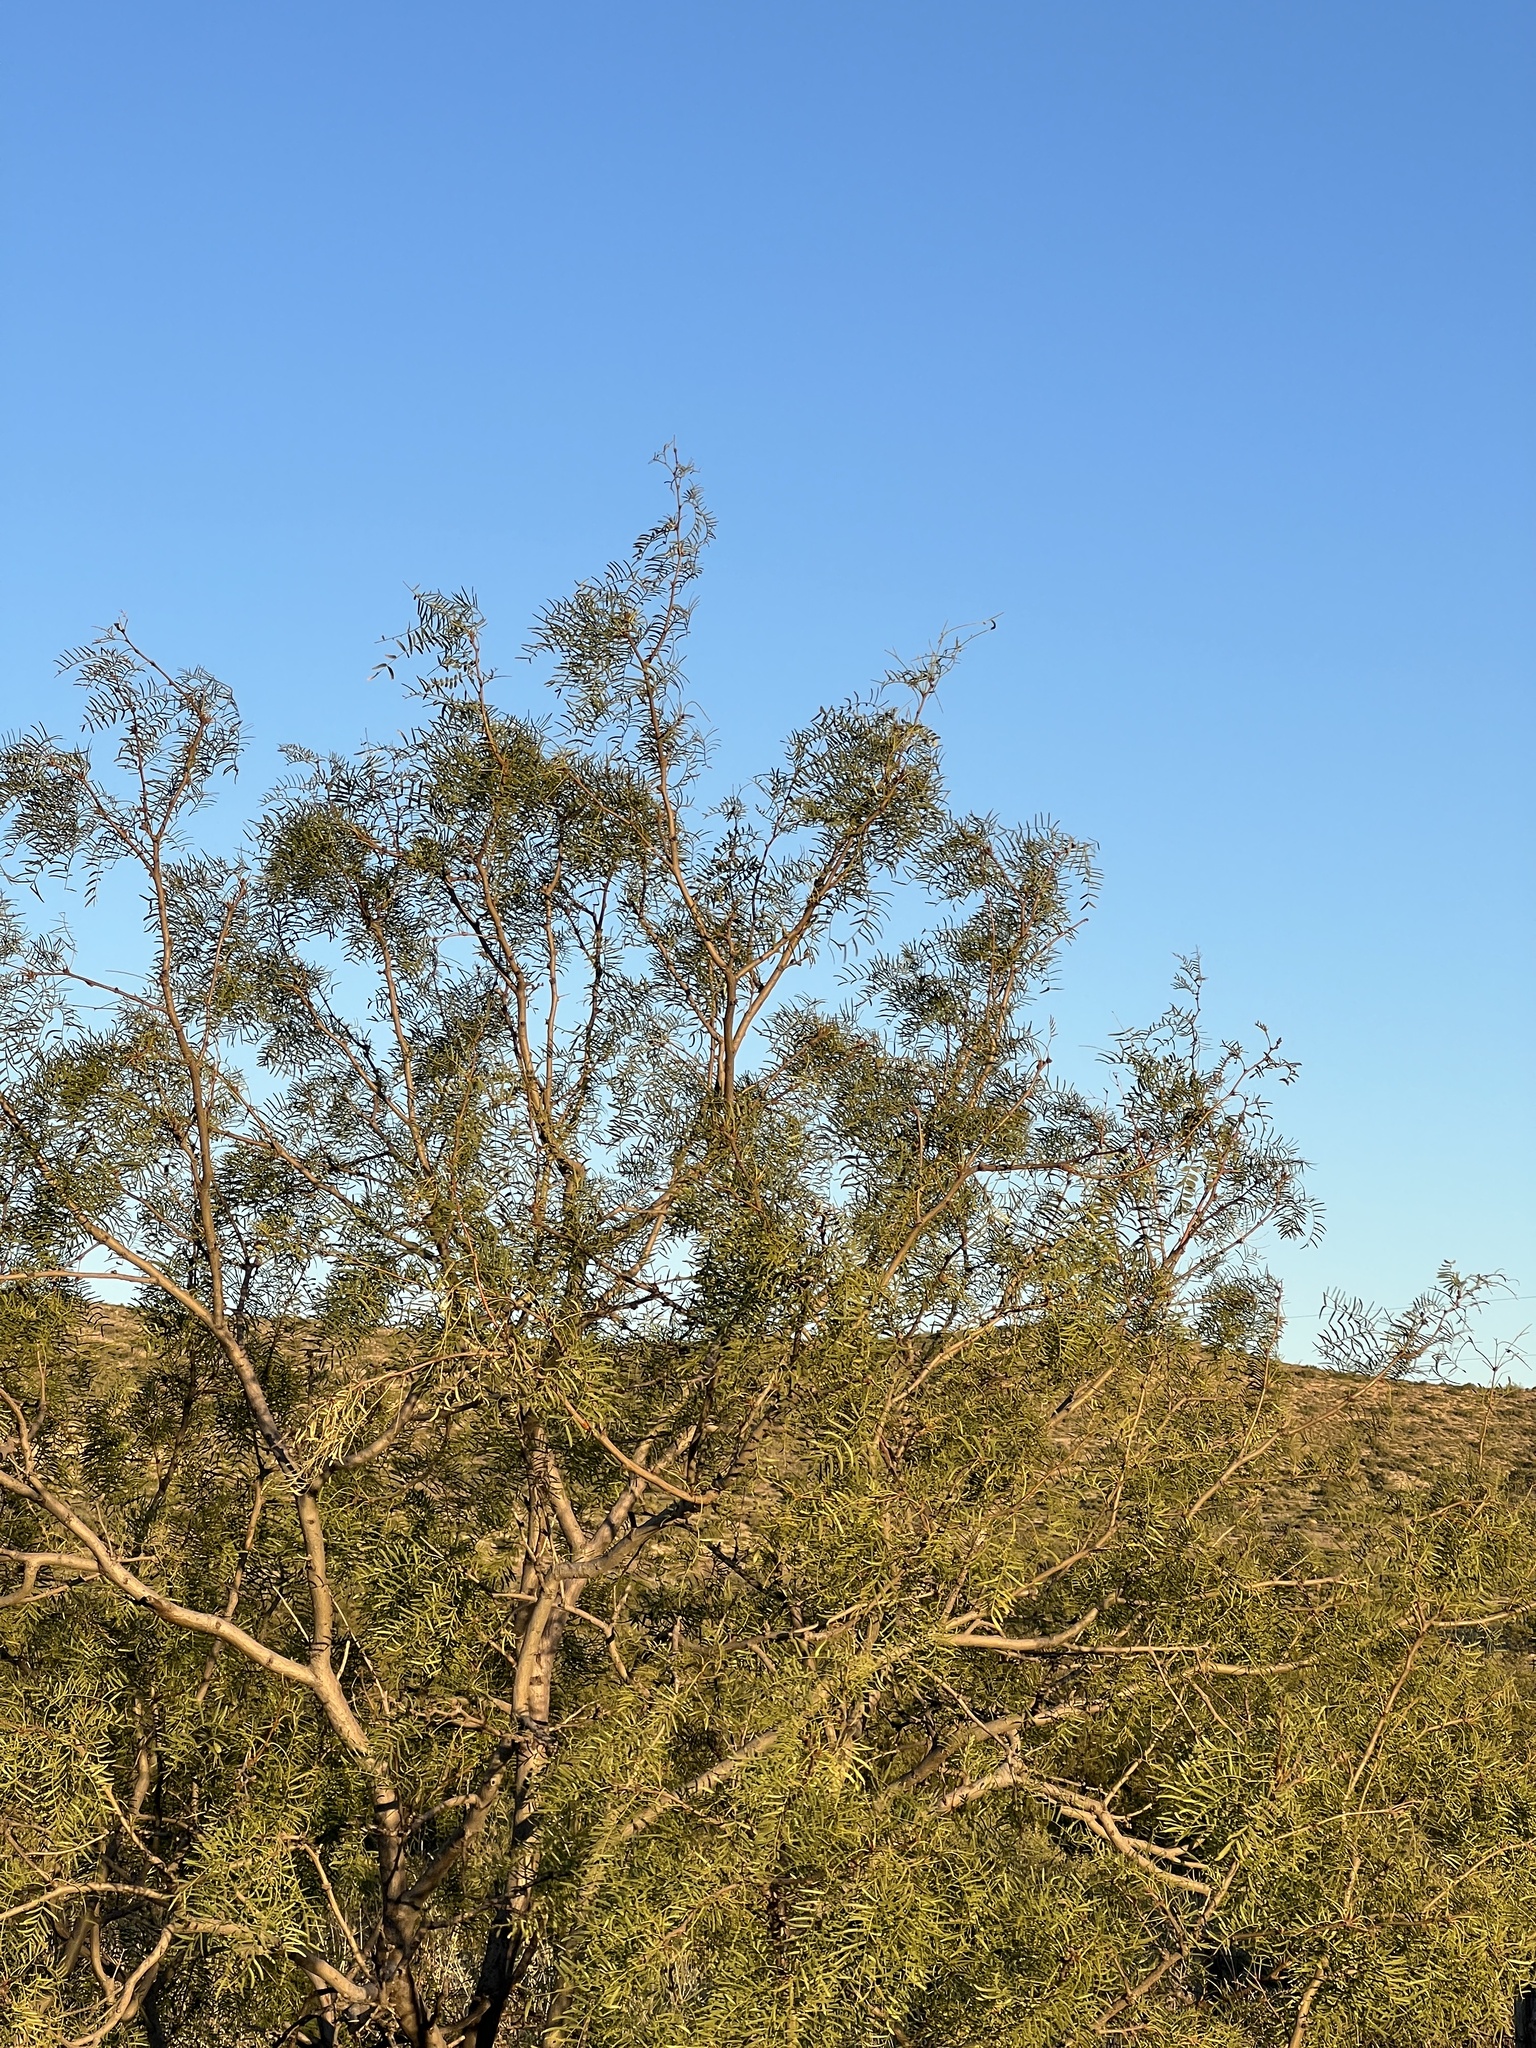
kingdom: Plantae
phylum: Tracheophyta
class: Magnoliopsida
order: Fabales
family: Fabaceae
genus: Prosopis
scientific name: Prosopis glandulosa
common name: Honey mesquite
